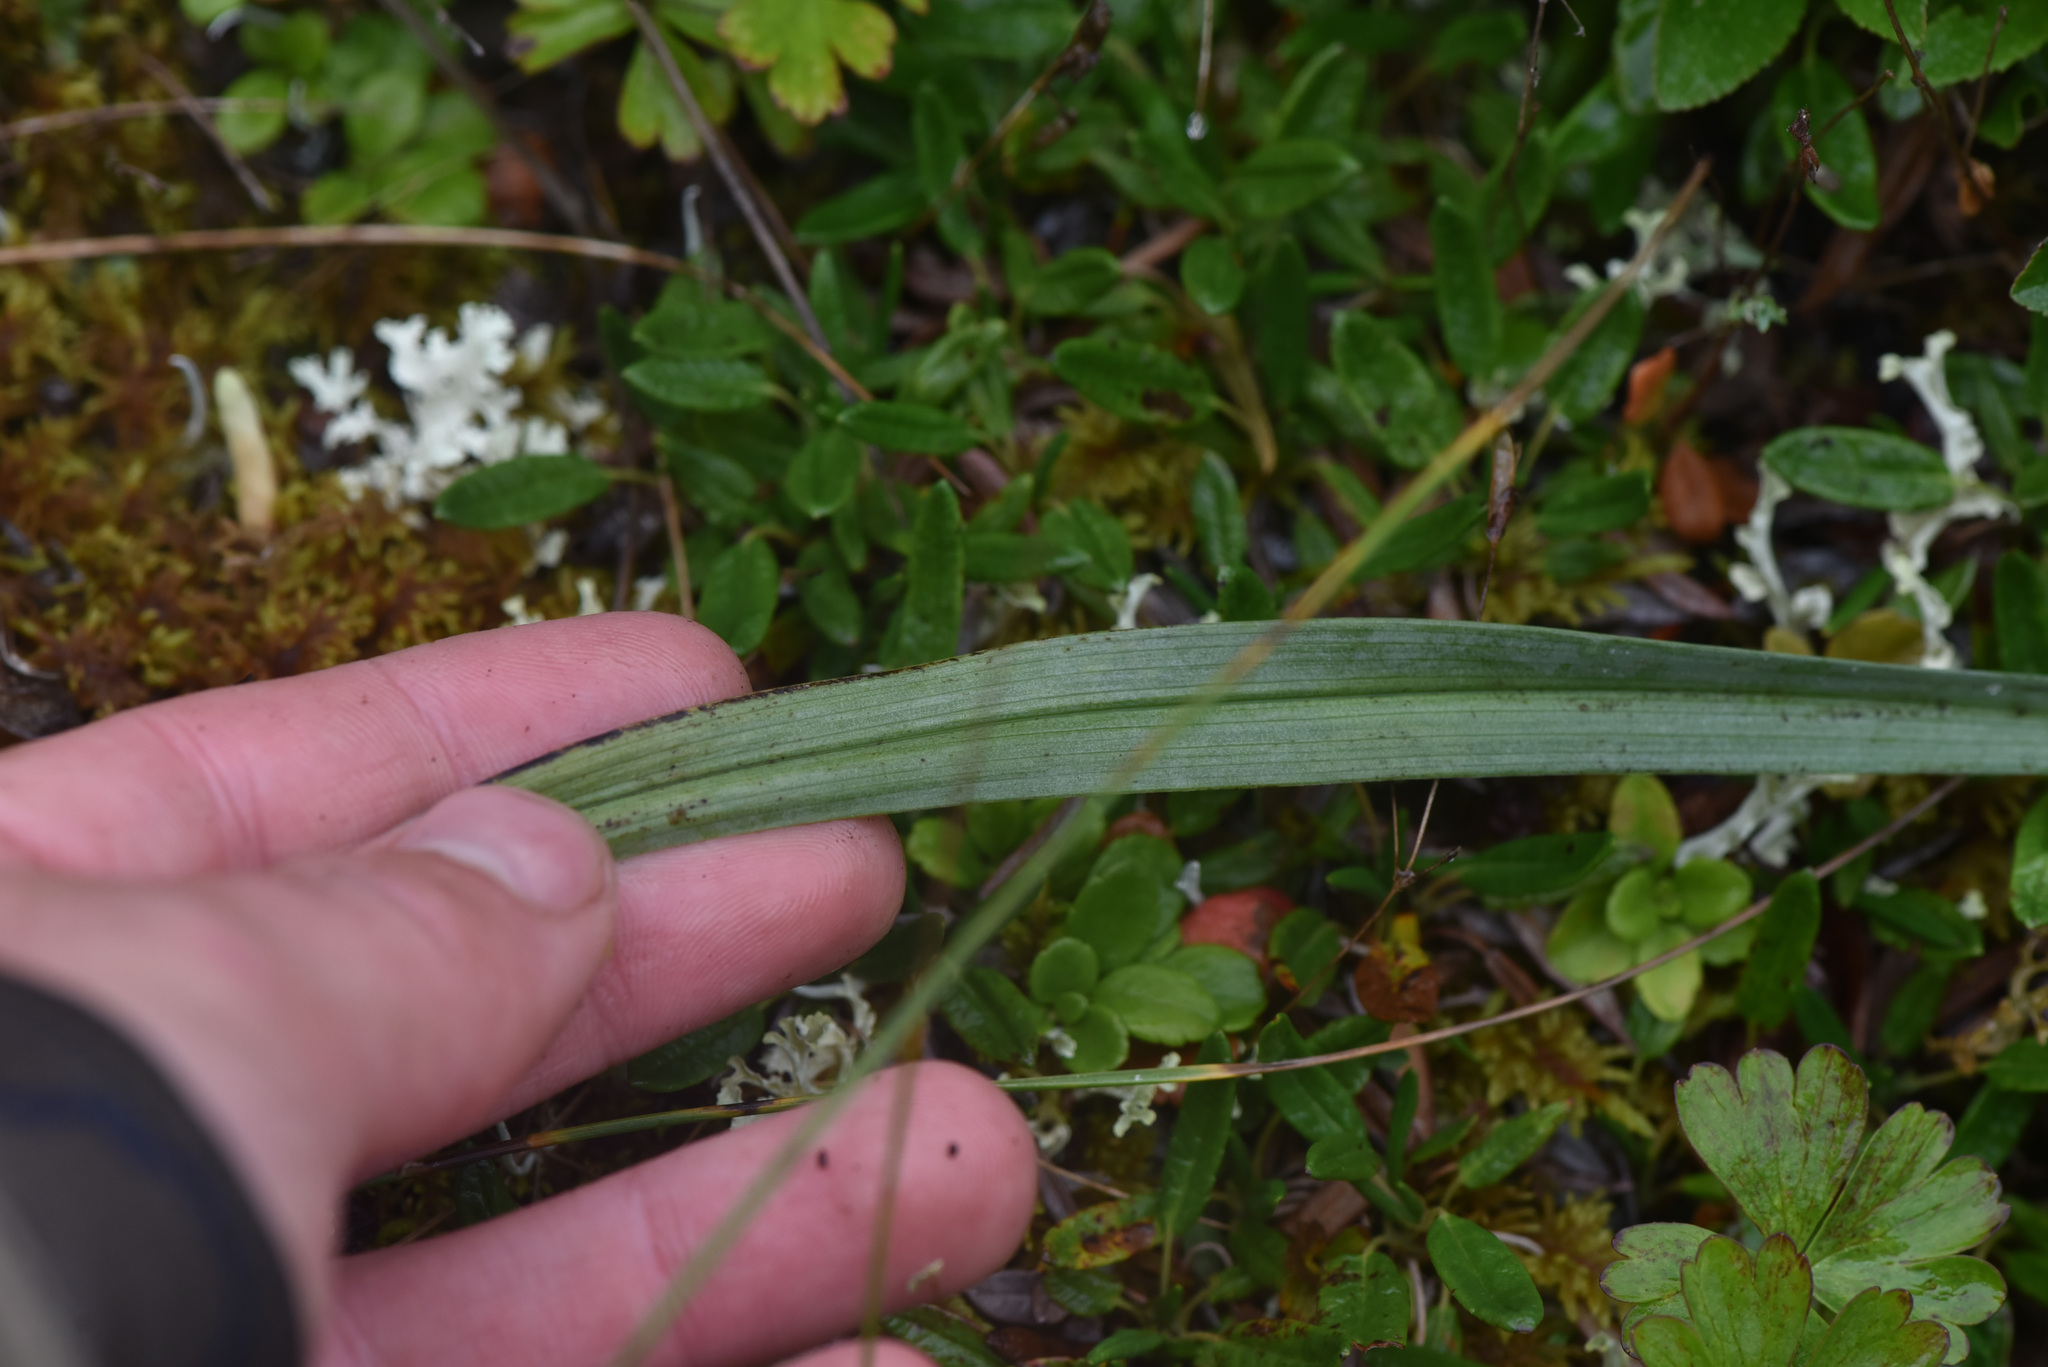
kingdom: Plantae
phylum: Tracheophyta
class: Liliopsida
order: Liliales
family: Melanthiaceae
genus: Anticlea
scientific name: Anticlea elegans
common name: Mountain death camas
